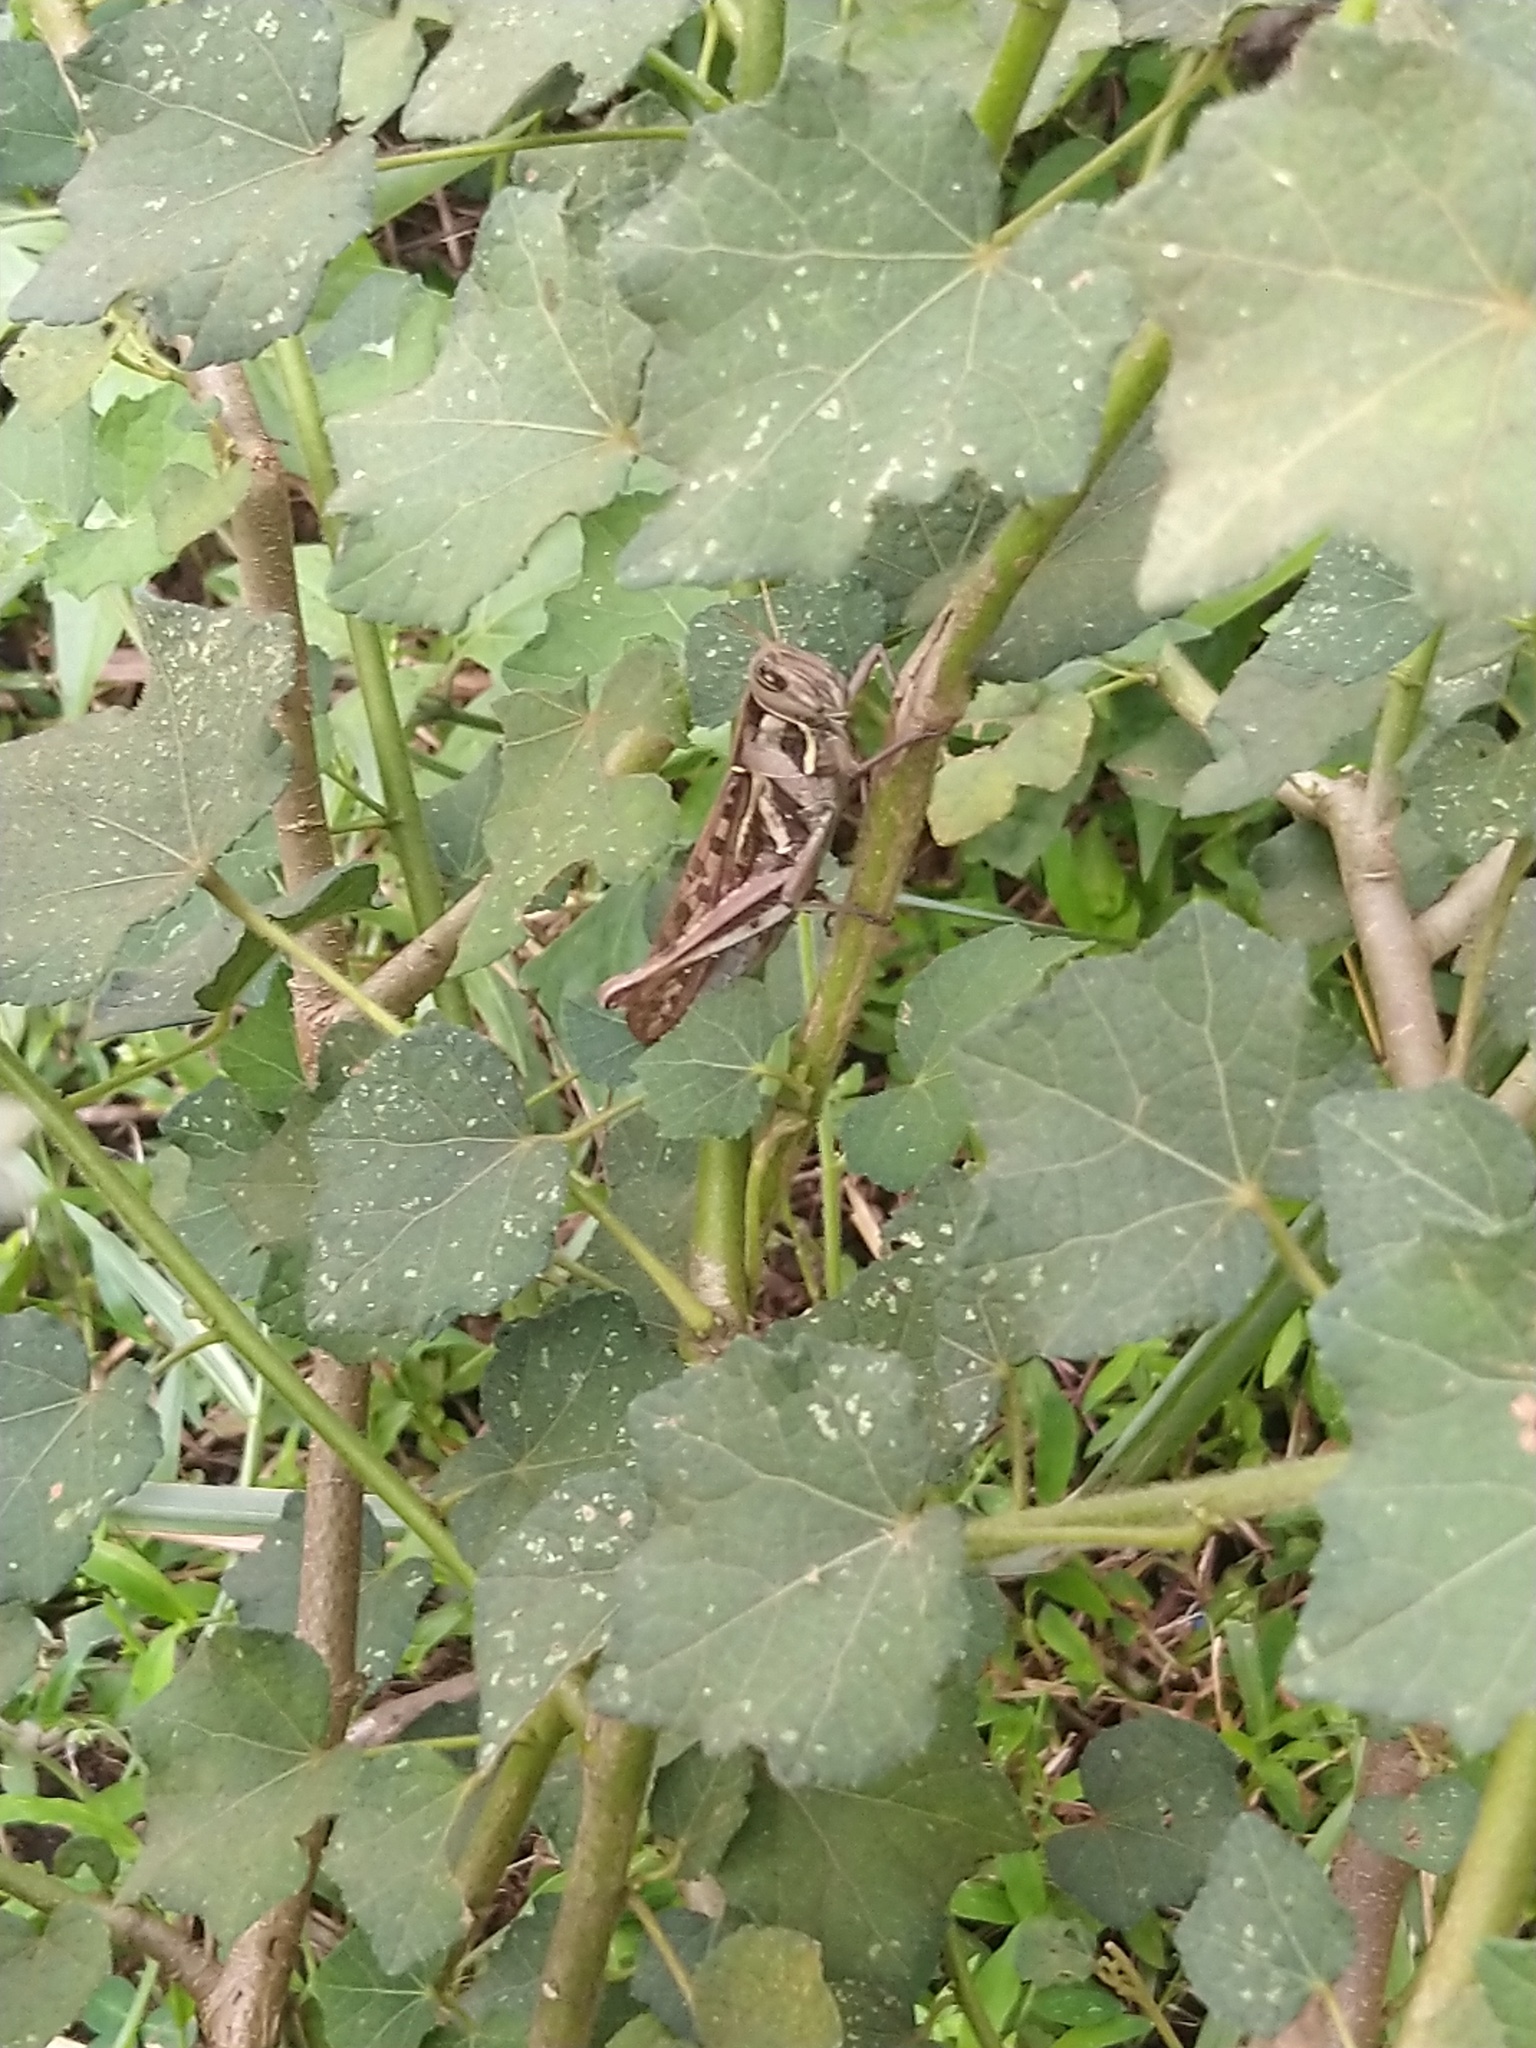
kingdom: Animalia
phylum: Arthropoda
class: Insecta
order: Orthoptera
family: Acrididae
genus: Cyrtacanthacris
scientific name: Cyrtacanthacris tatarica
